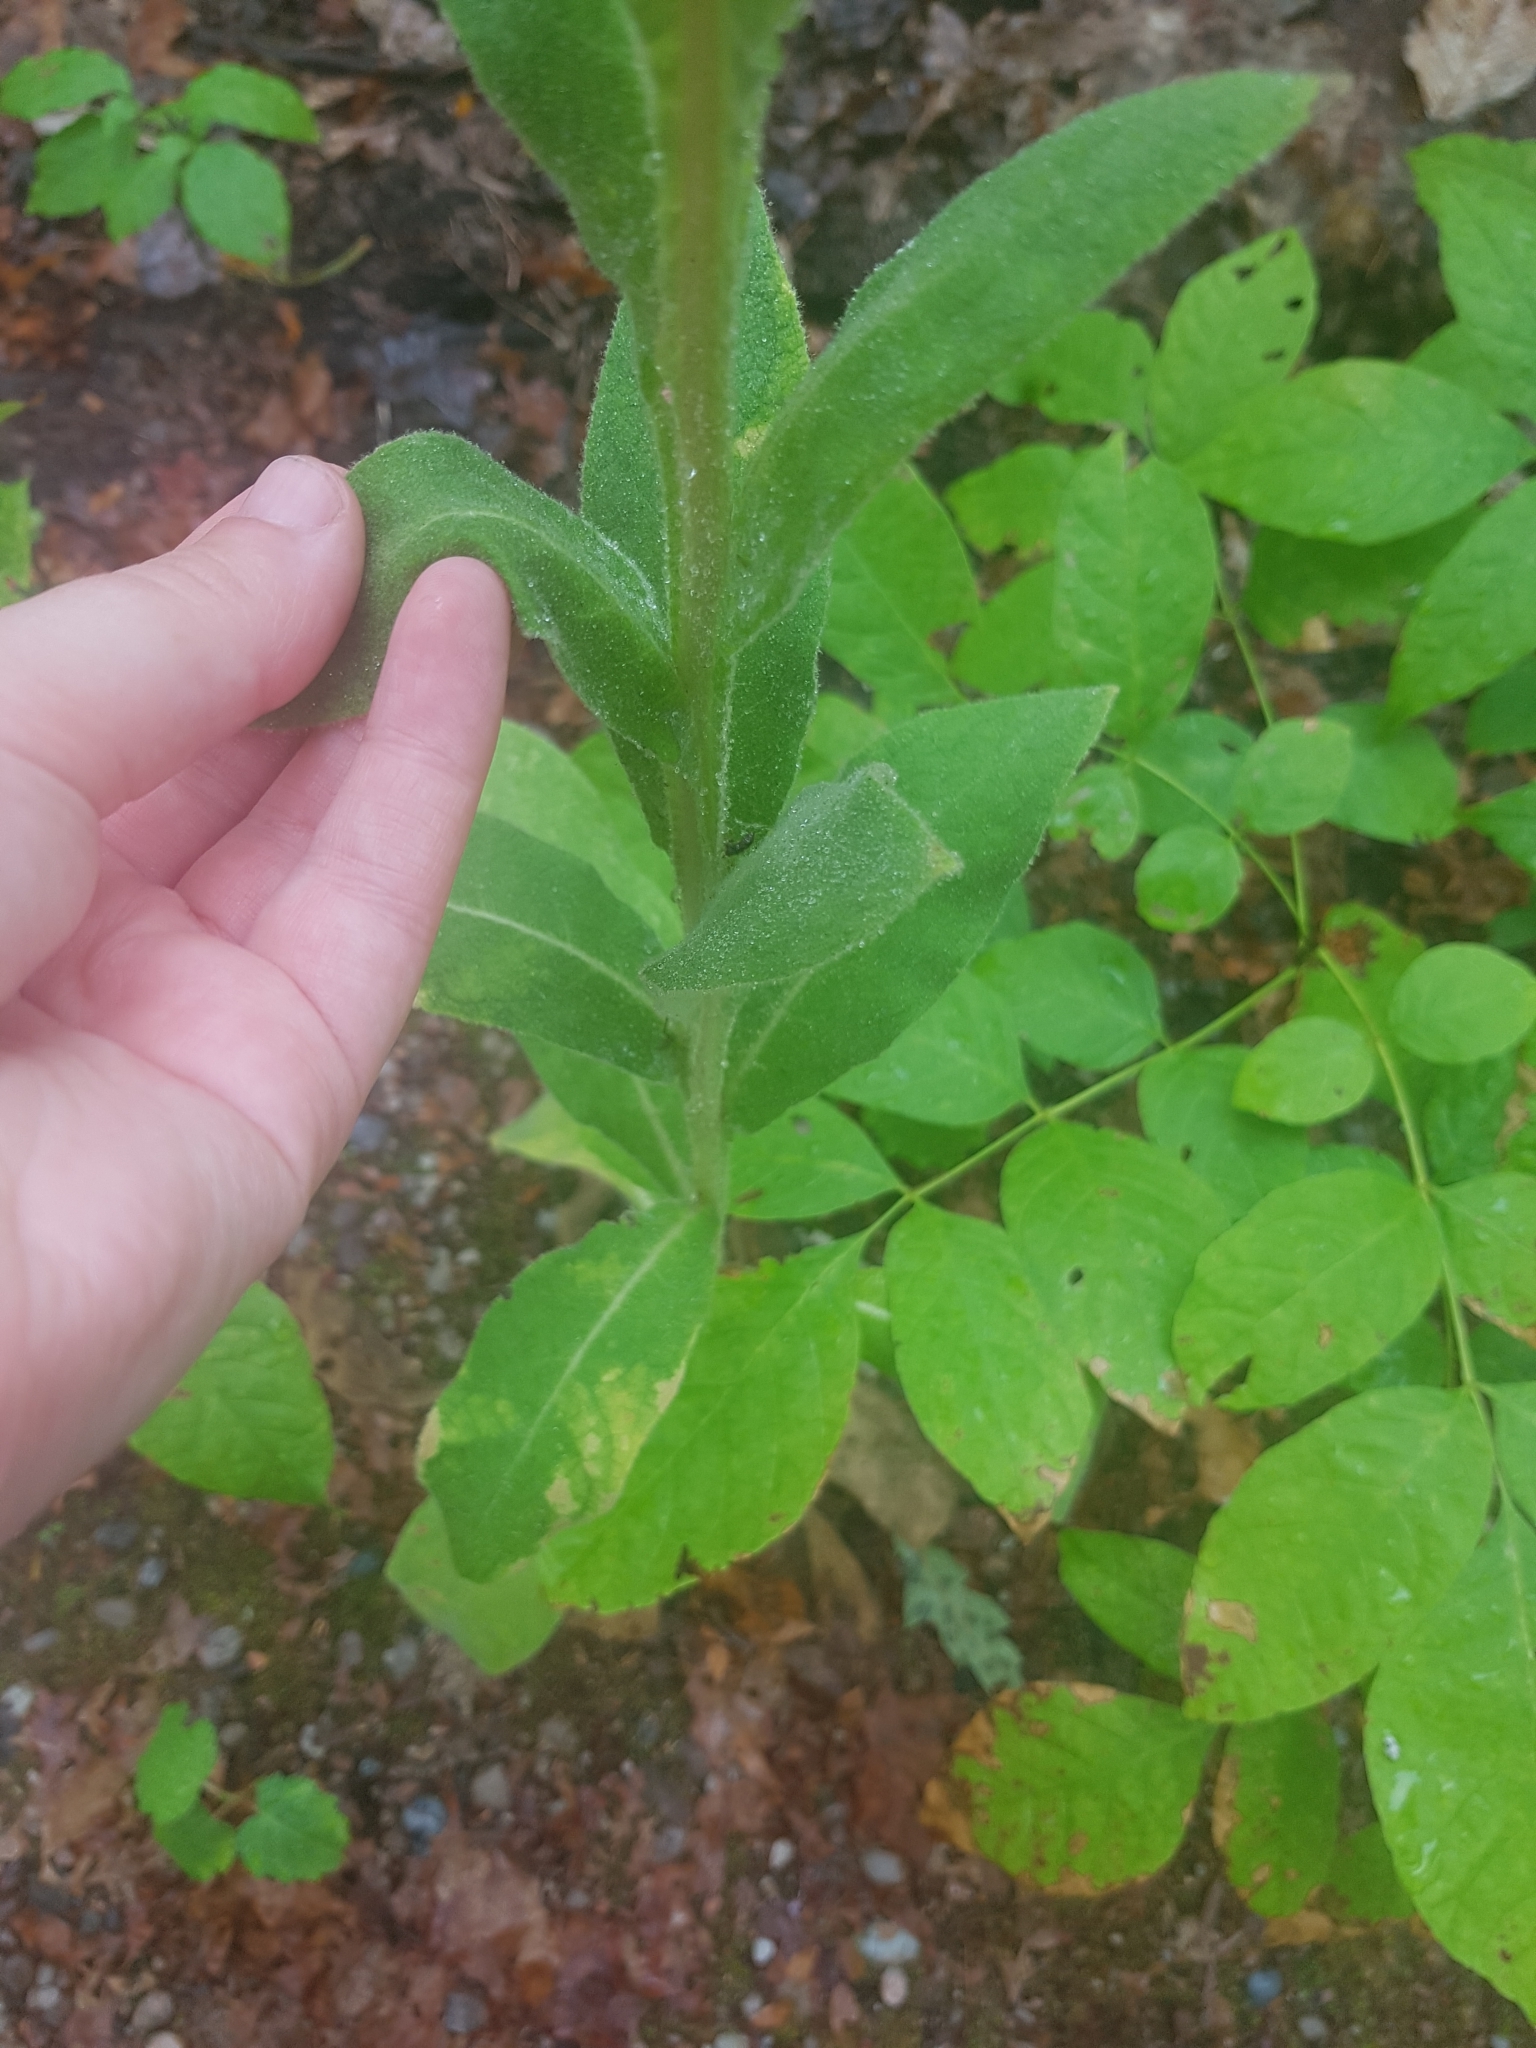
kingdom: Plantae
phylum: Tracheophyta
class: Magnoliopsida
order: Lamiales
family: Scrophulariaceae
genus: Verbascum
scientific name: Verbascum thapsus
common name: Common mullein
